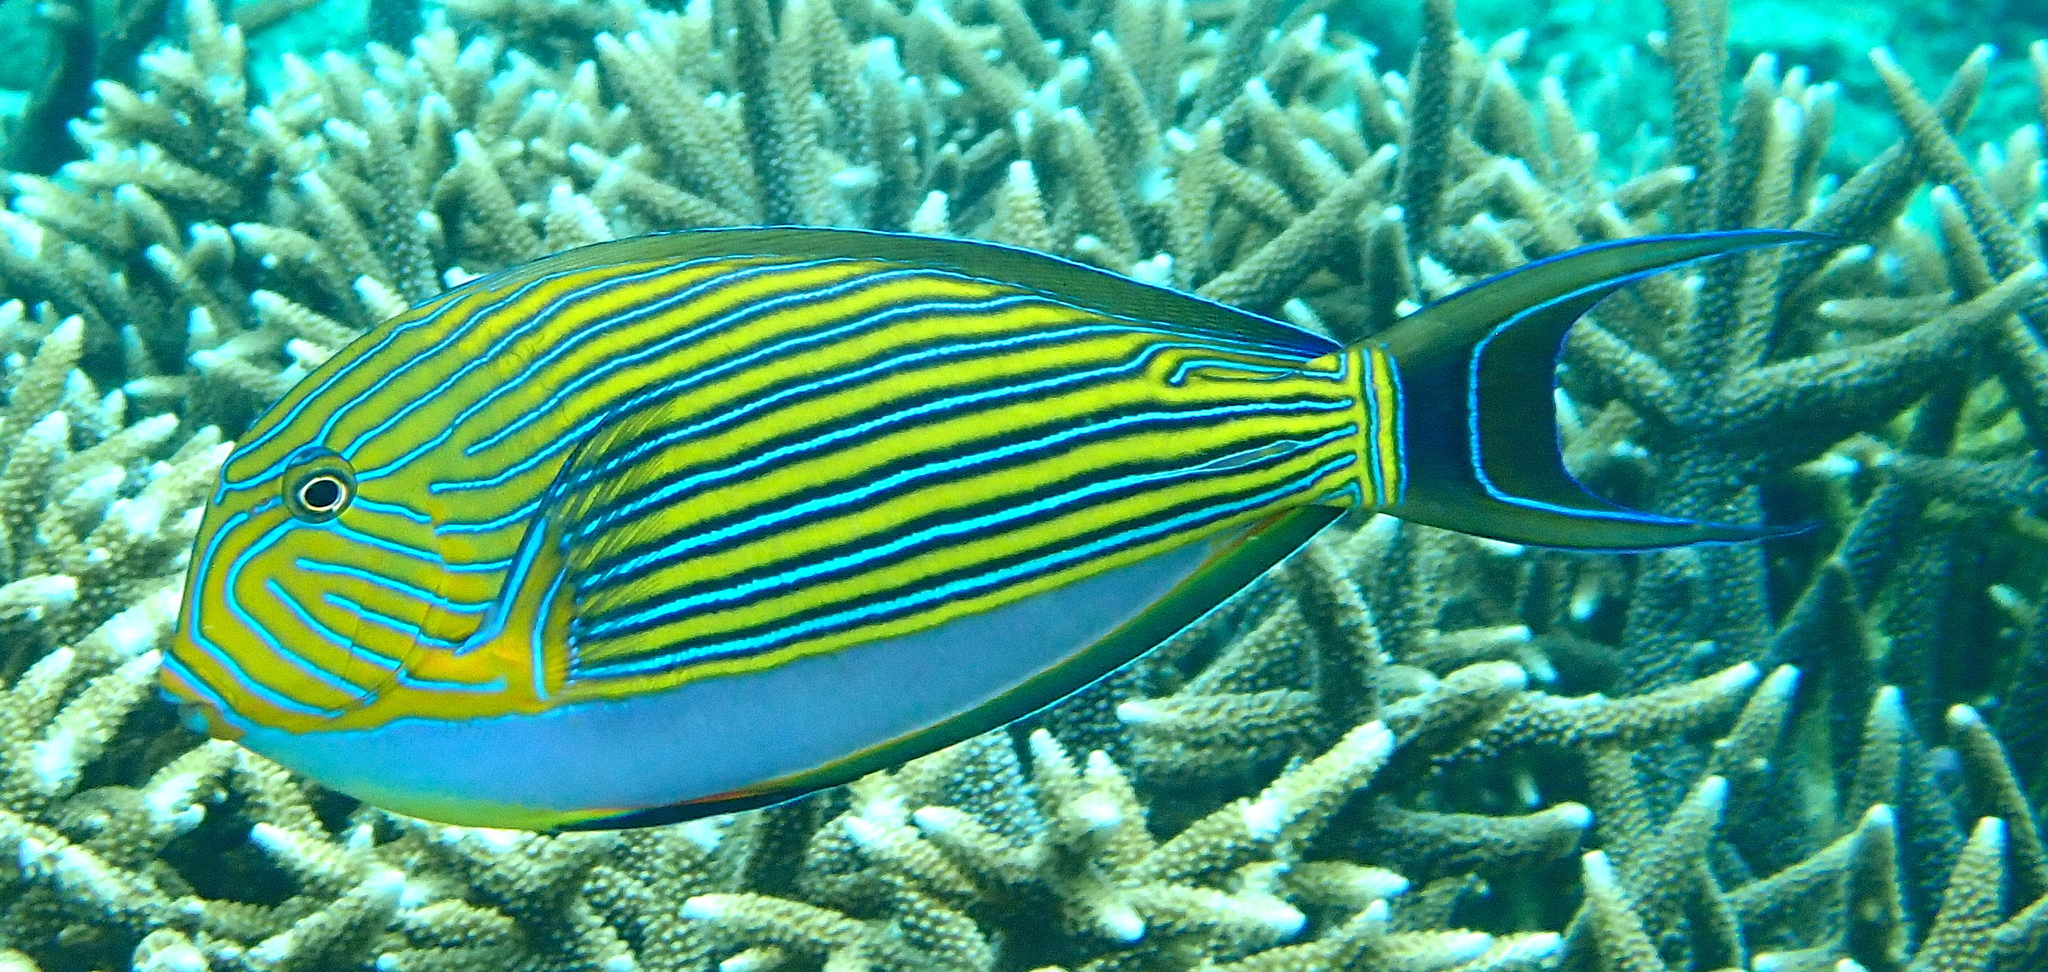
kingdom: Animalia
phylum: Chordata
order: Perciformes
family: Acanthuridae
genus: Acanthurus
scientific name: Acanthurus lineatus
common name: Striped surgeonfish
